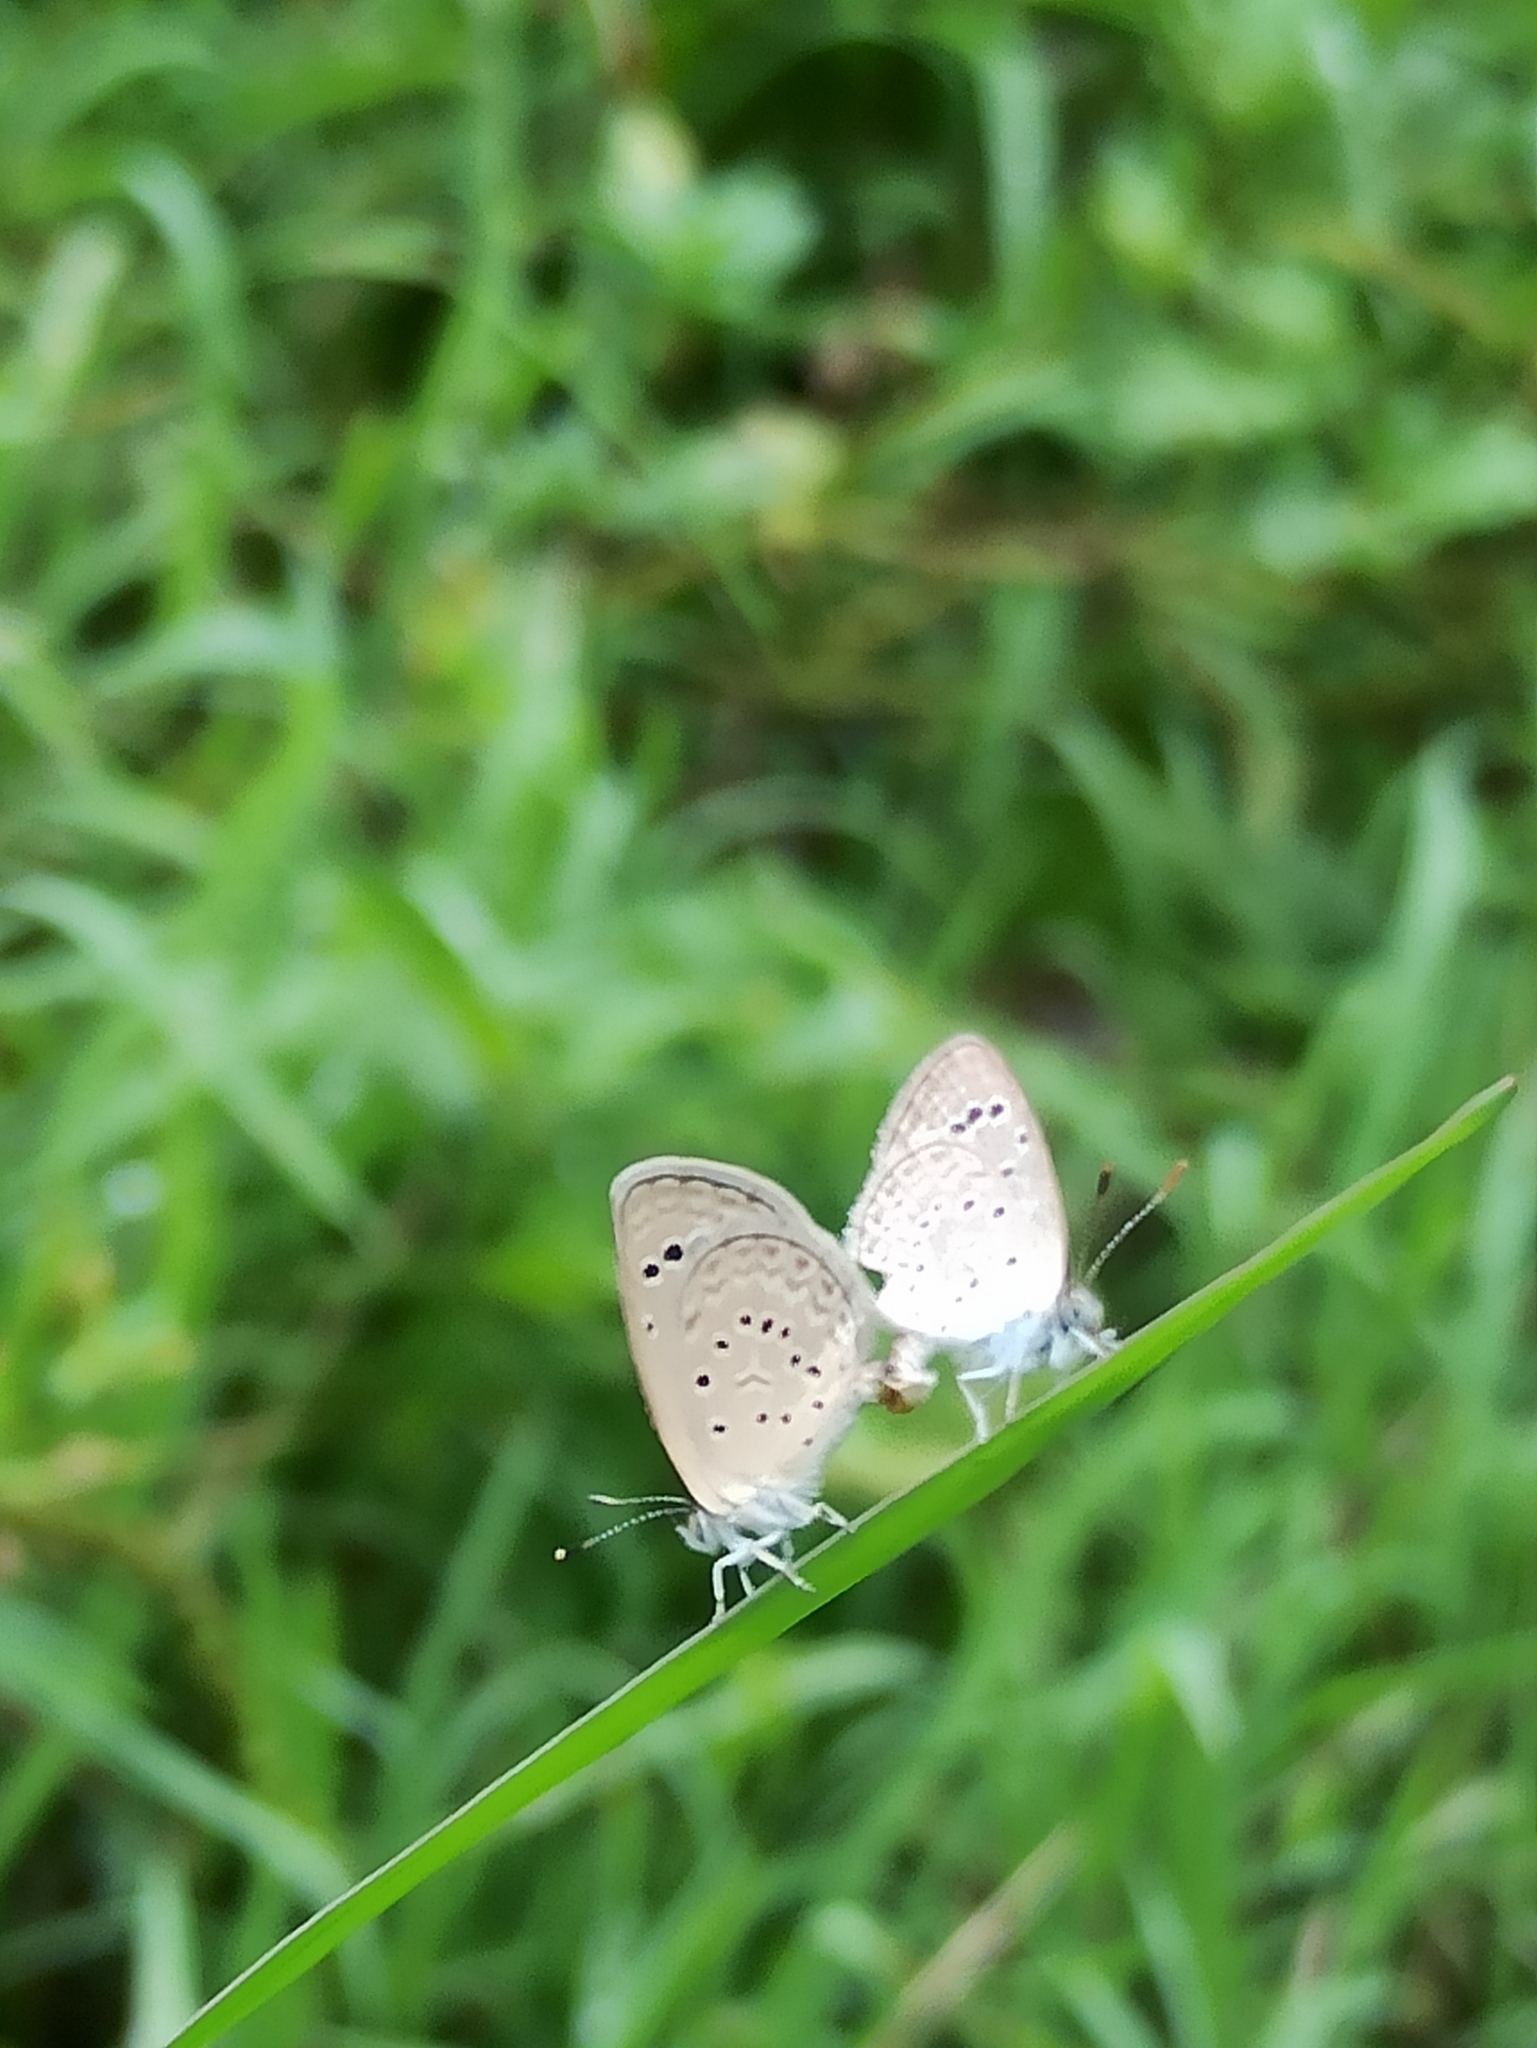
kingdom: Animalia
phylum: Arthropoda
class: Insecta
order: Lepidoptera
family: Lycaenidae
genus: Zizeeria
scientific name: Zizeeria karsandra
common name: Dark grass blue
